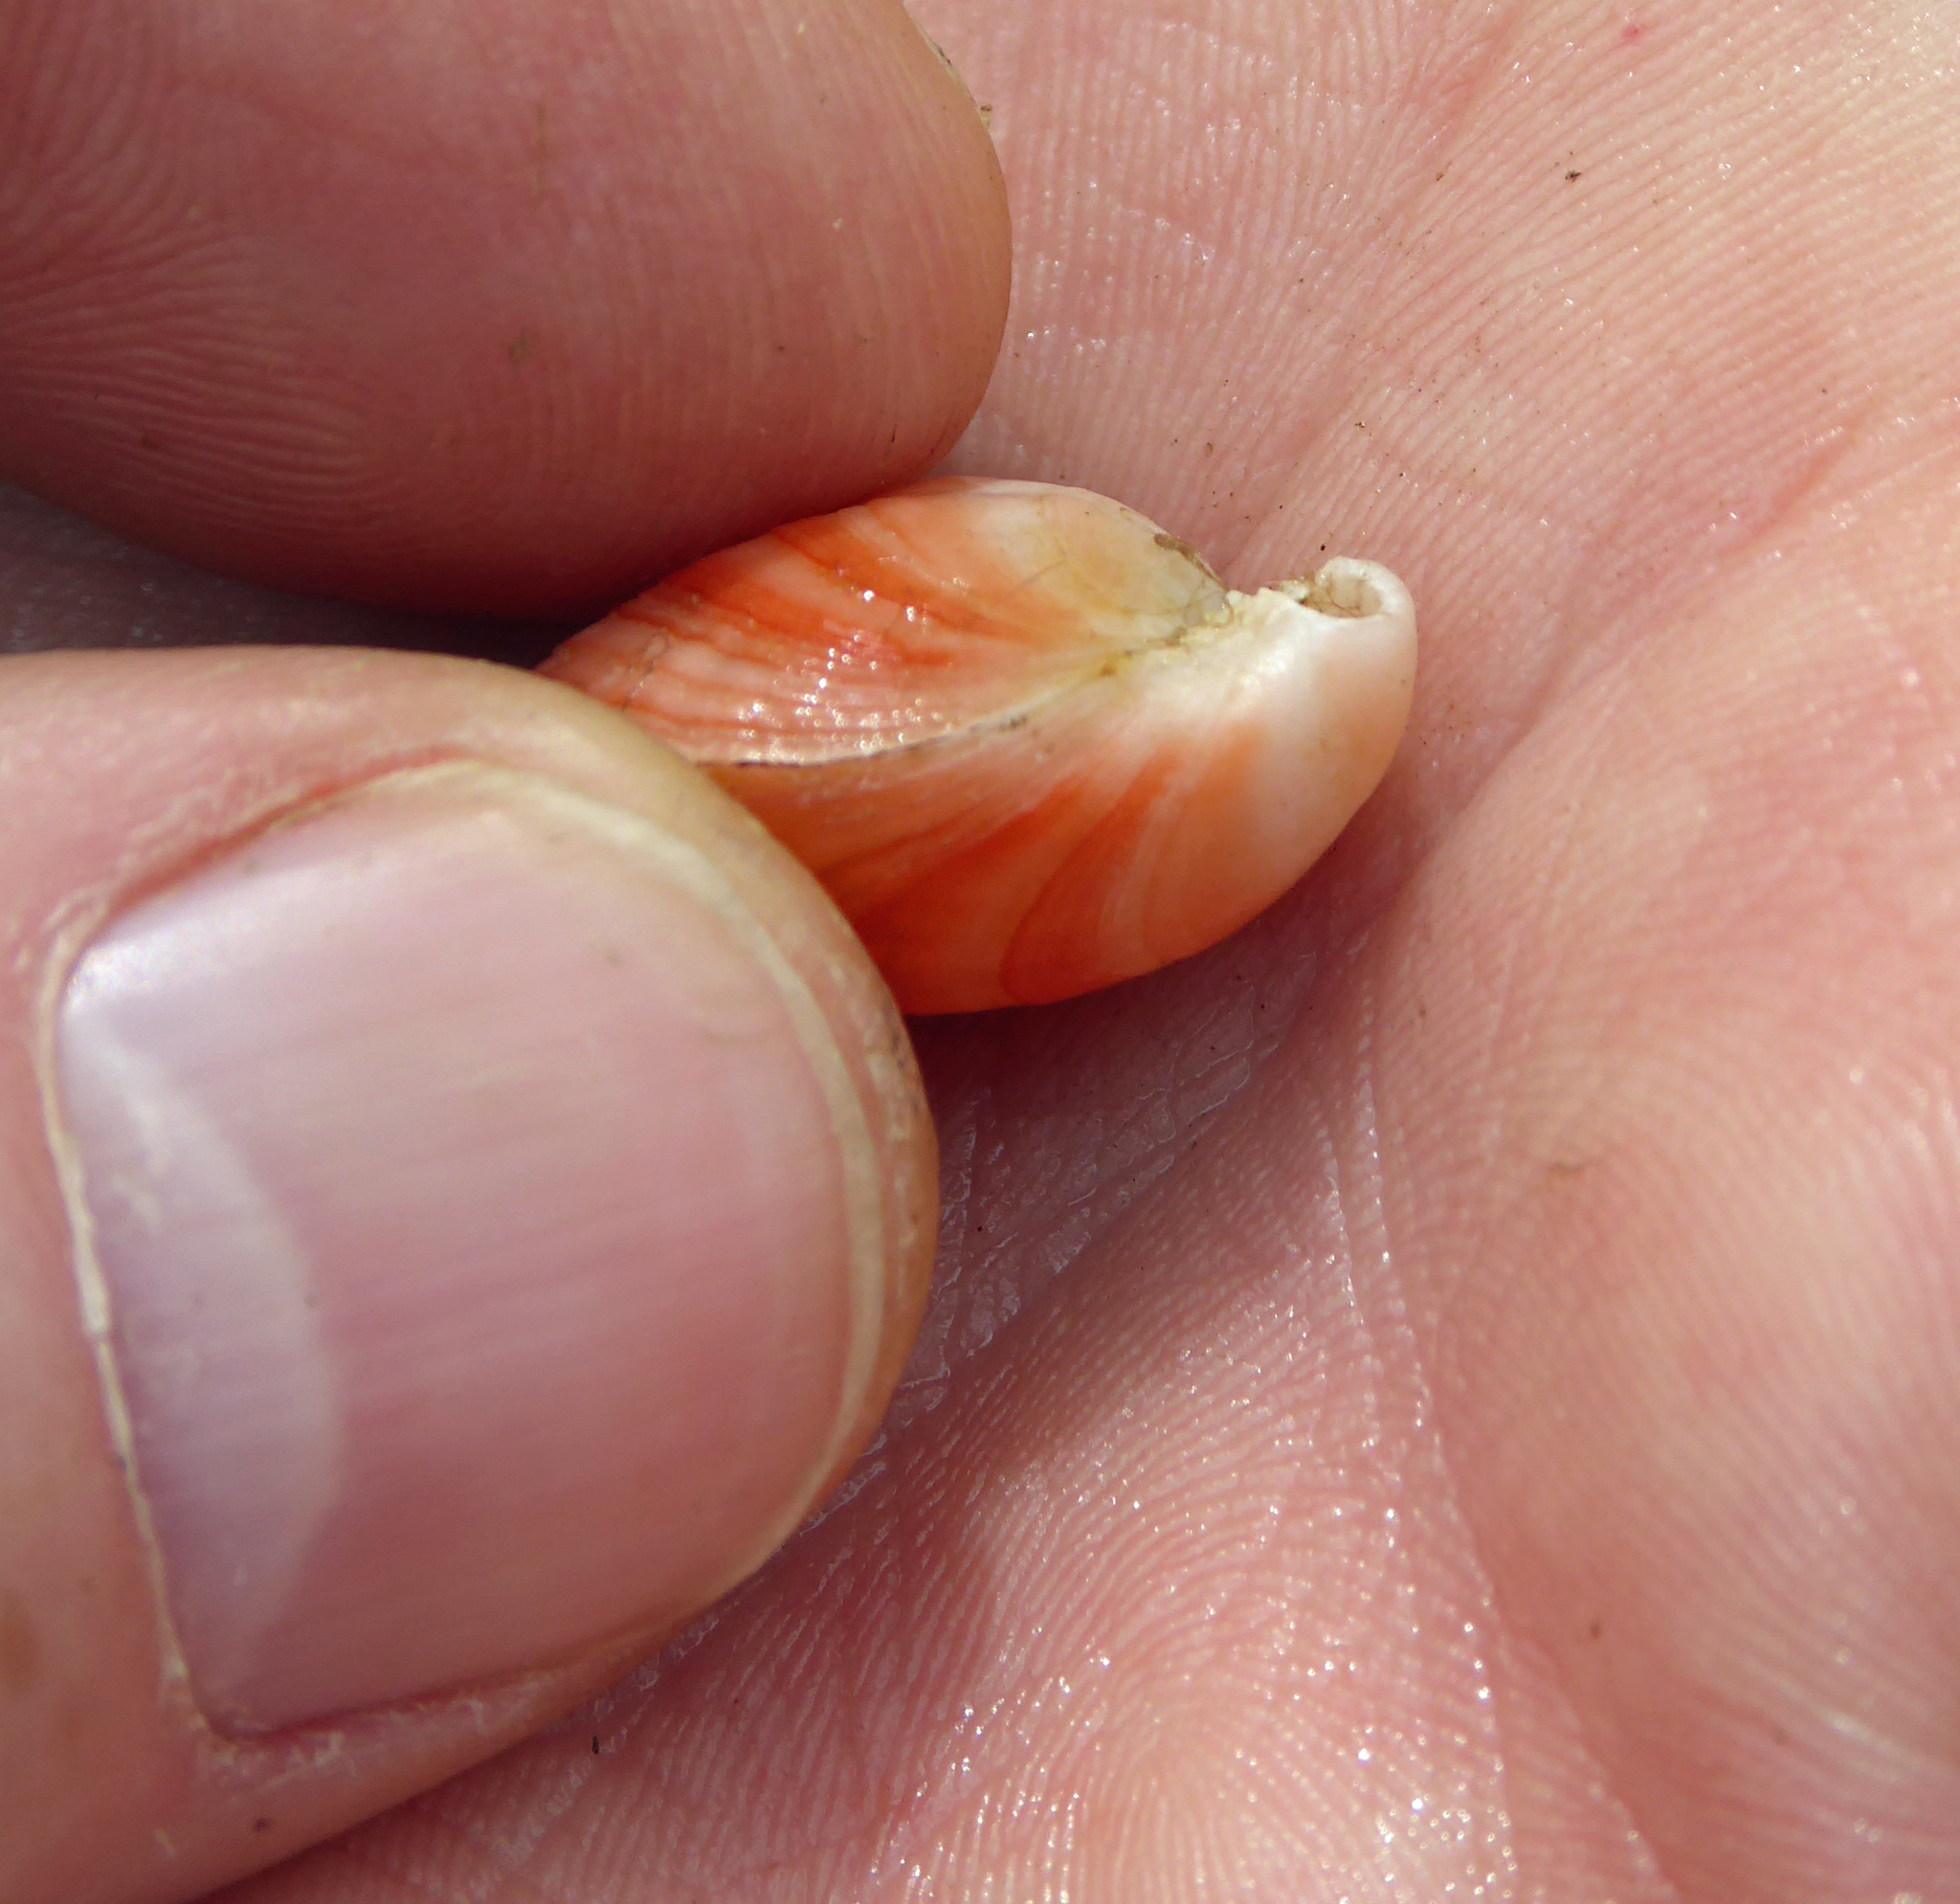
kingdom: Animalia
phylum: Brachiopoda
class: Rhynchonellata
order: Terebratulida
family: Terebratellidae
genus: Calloria
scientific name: Calloria inconspicua
